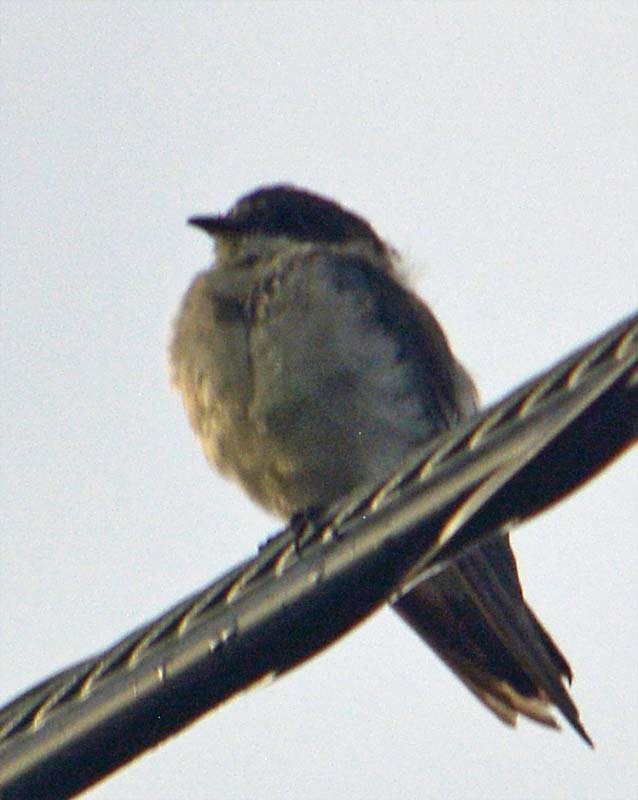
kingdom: Animalia
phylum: Chordata
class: Aves
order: Passeriformes
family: Hirundinidae
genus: Tachycineta
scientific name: Tachycineta albilinea
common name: Mangrove swallow
